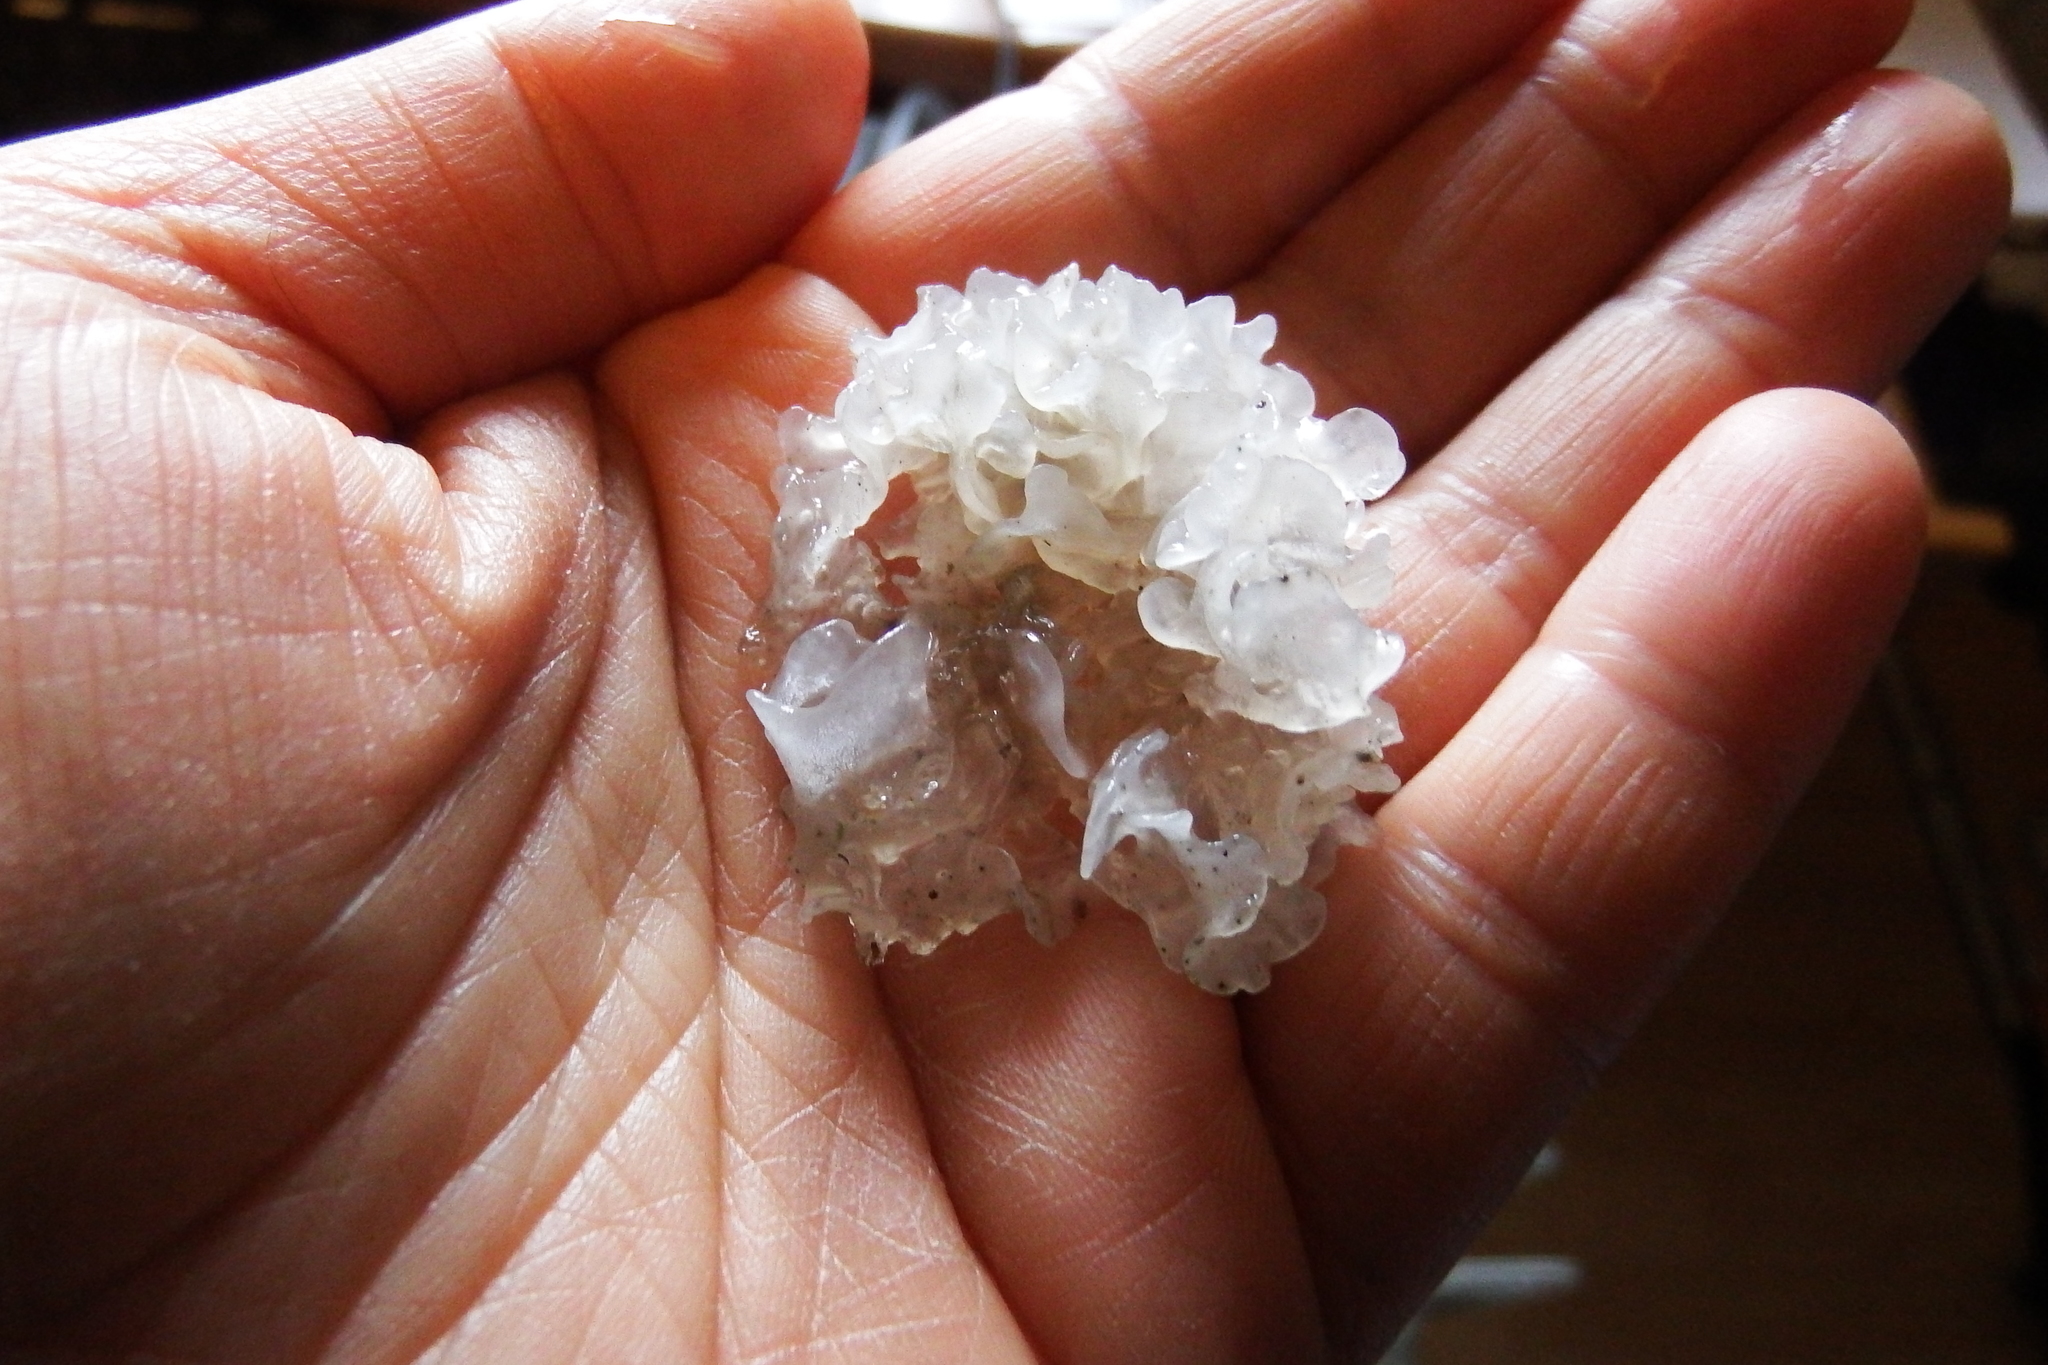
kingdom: Fungi
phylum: Basidiomycota
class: Tremellomycetes
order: Tremellales
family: Tremellaceae
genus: Tremella
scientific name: Tremella fuciformis
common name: Snow fungus
